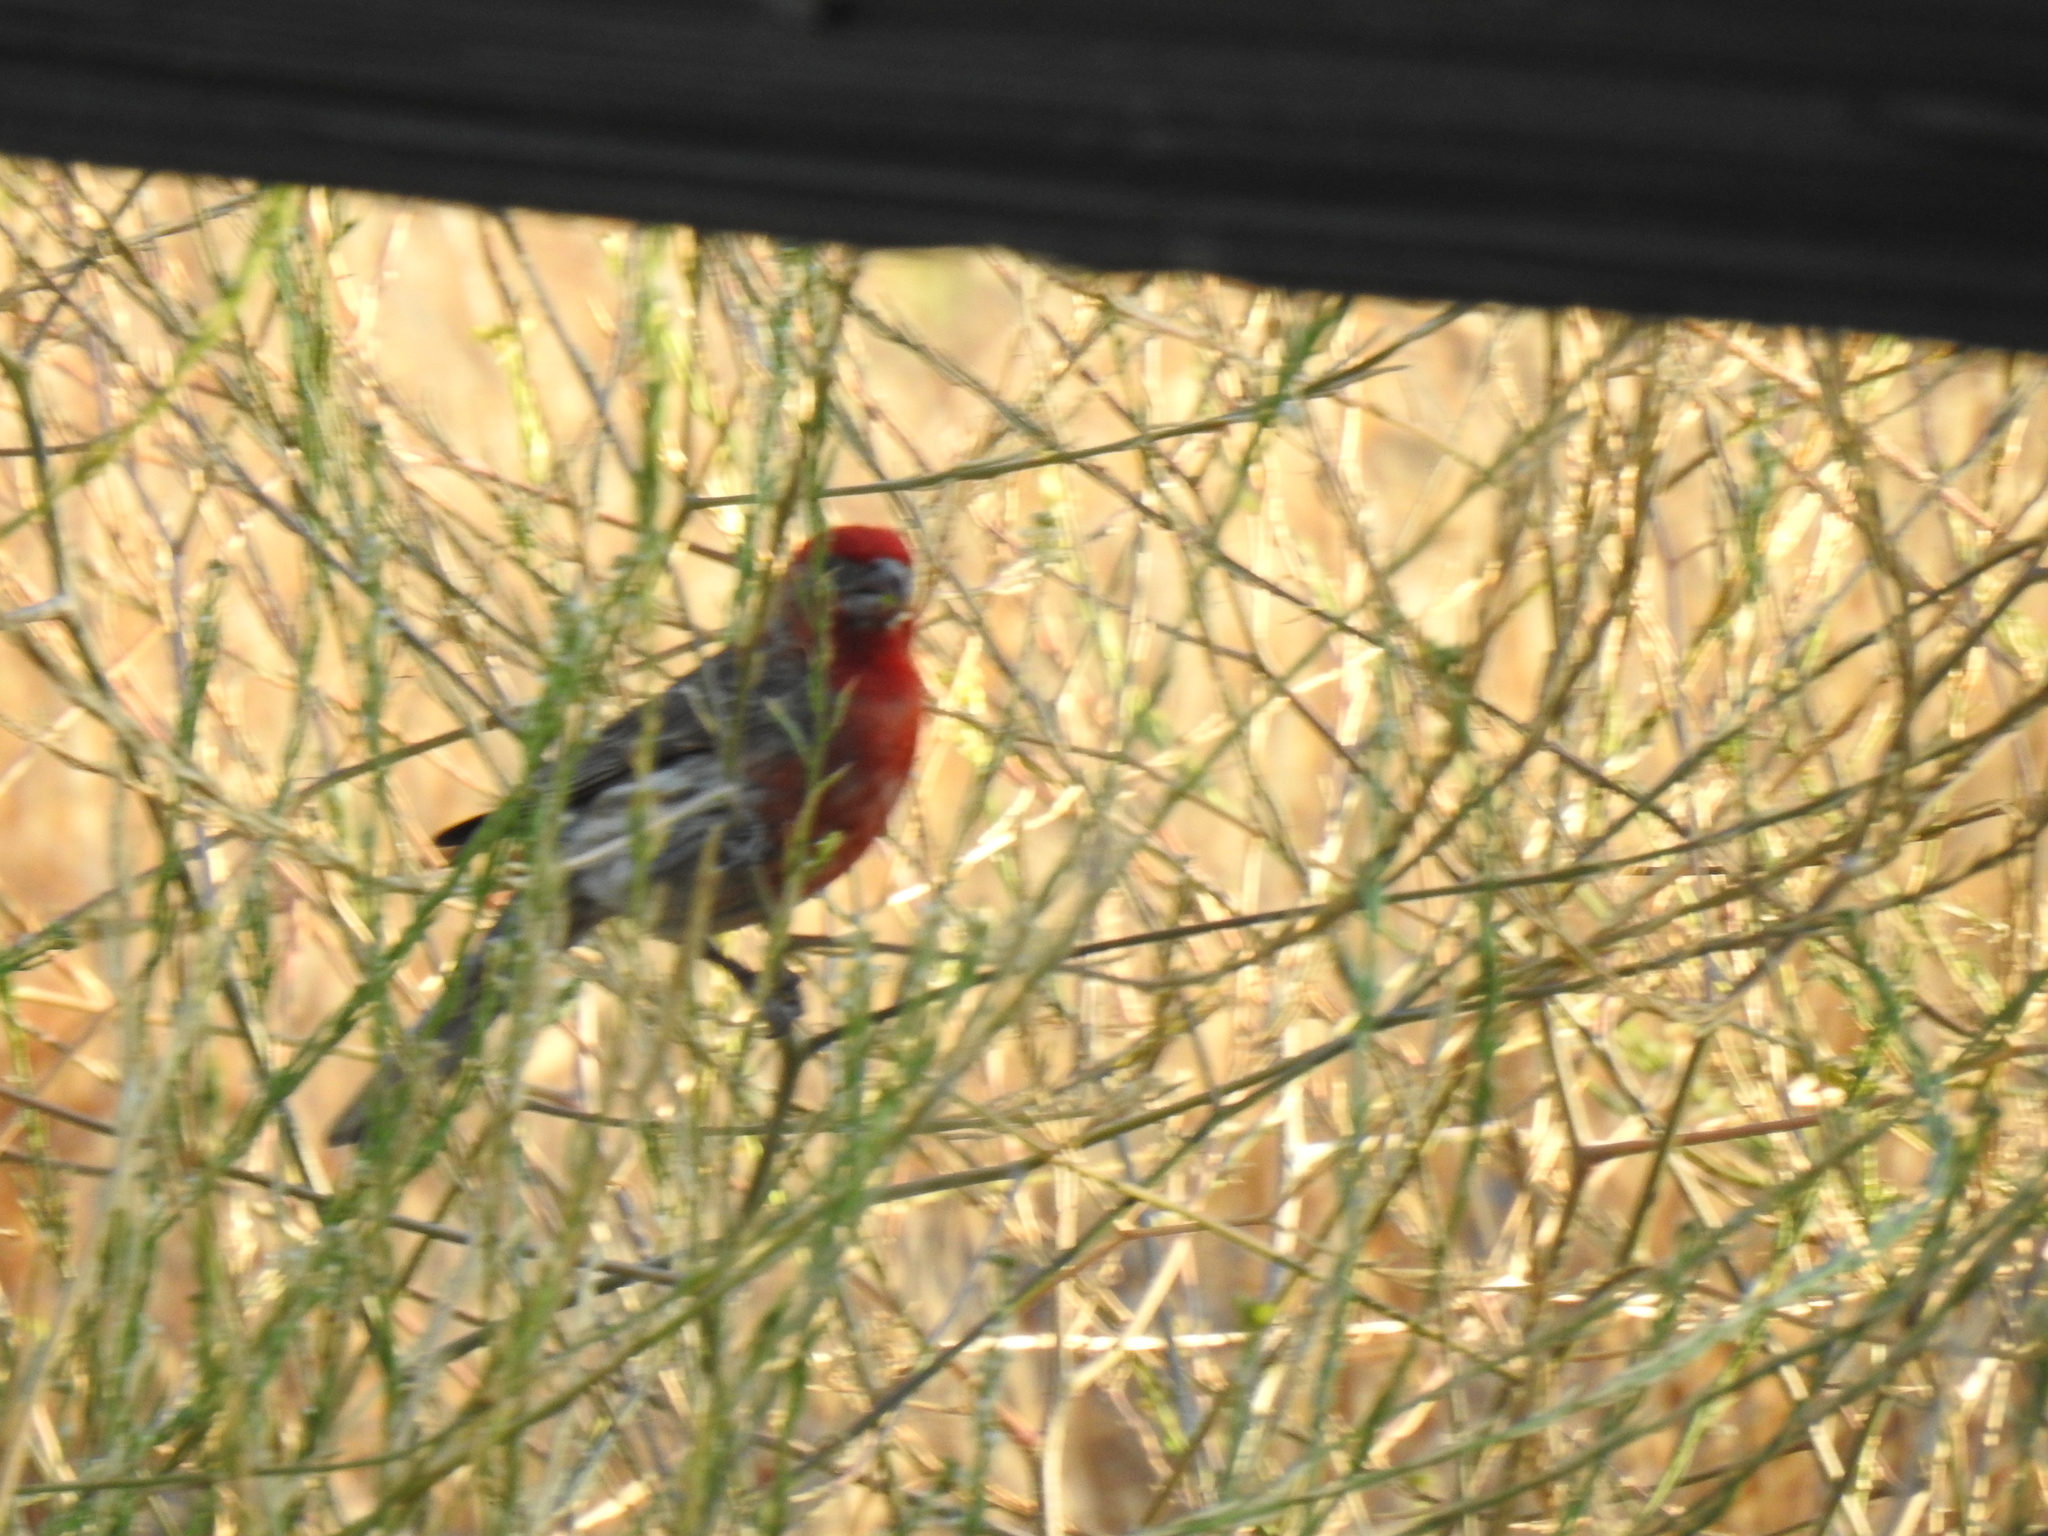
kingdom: Animalia
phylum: Chordata
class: Aves
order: Passeriformes
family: Fringillidae
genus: Haemorhous
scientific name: Haemorhous mexicanus
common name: House finch
